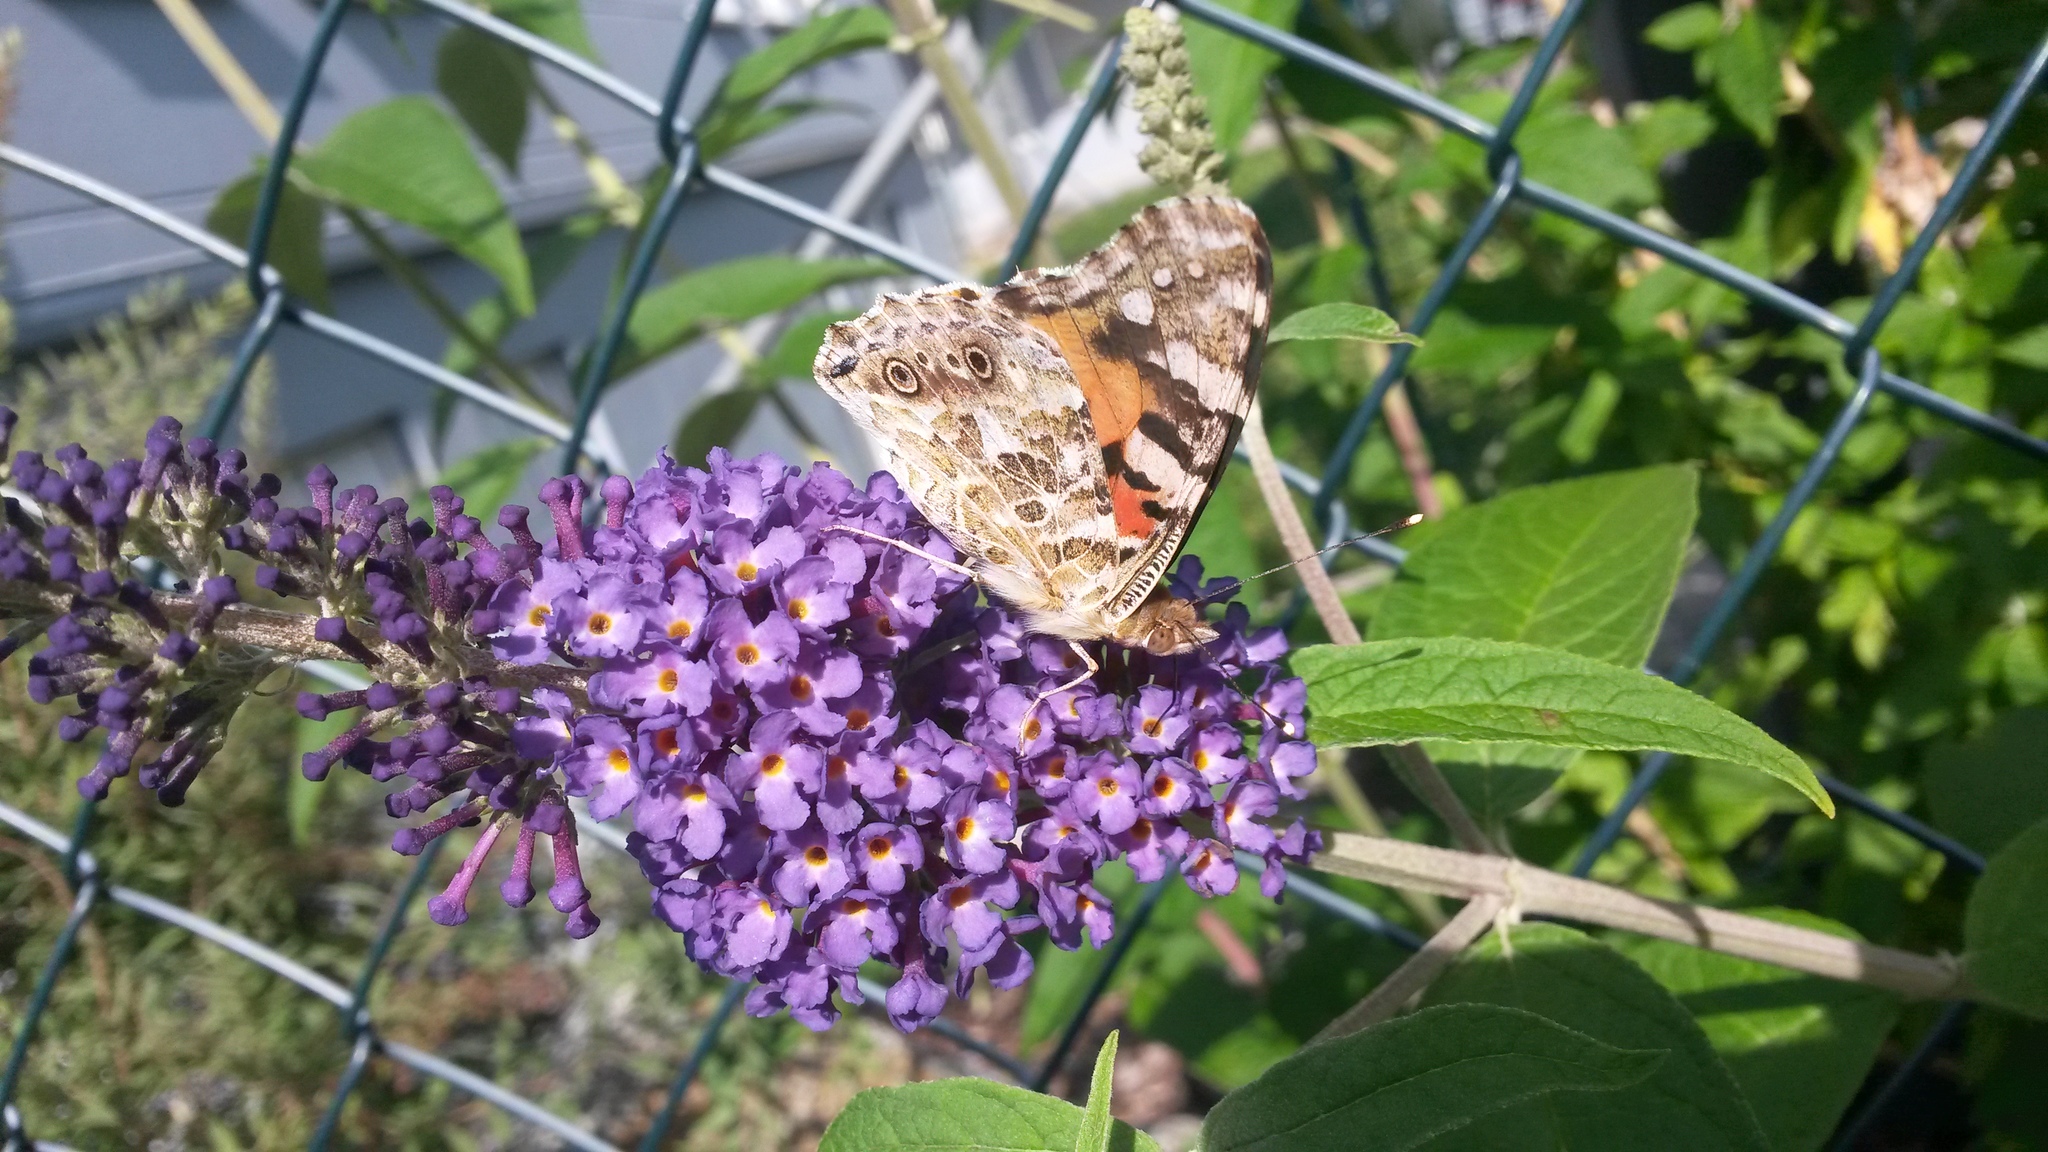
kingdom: Animalia
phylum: Arthropoda
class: Insecta
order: Lepidoptera
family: Nymphalidae
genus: Vanessa
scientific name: Vanessa cardui
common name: Painted lady
